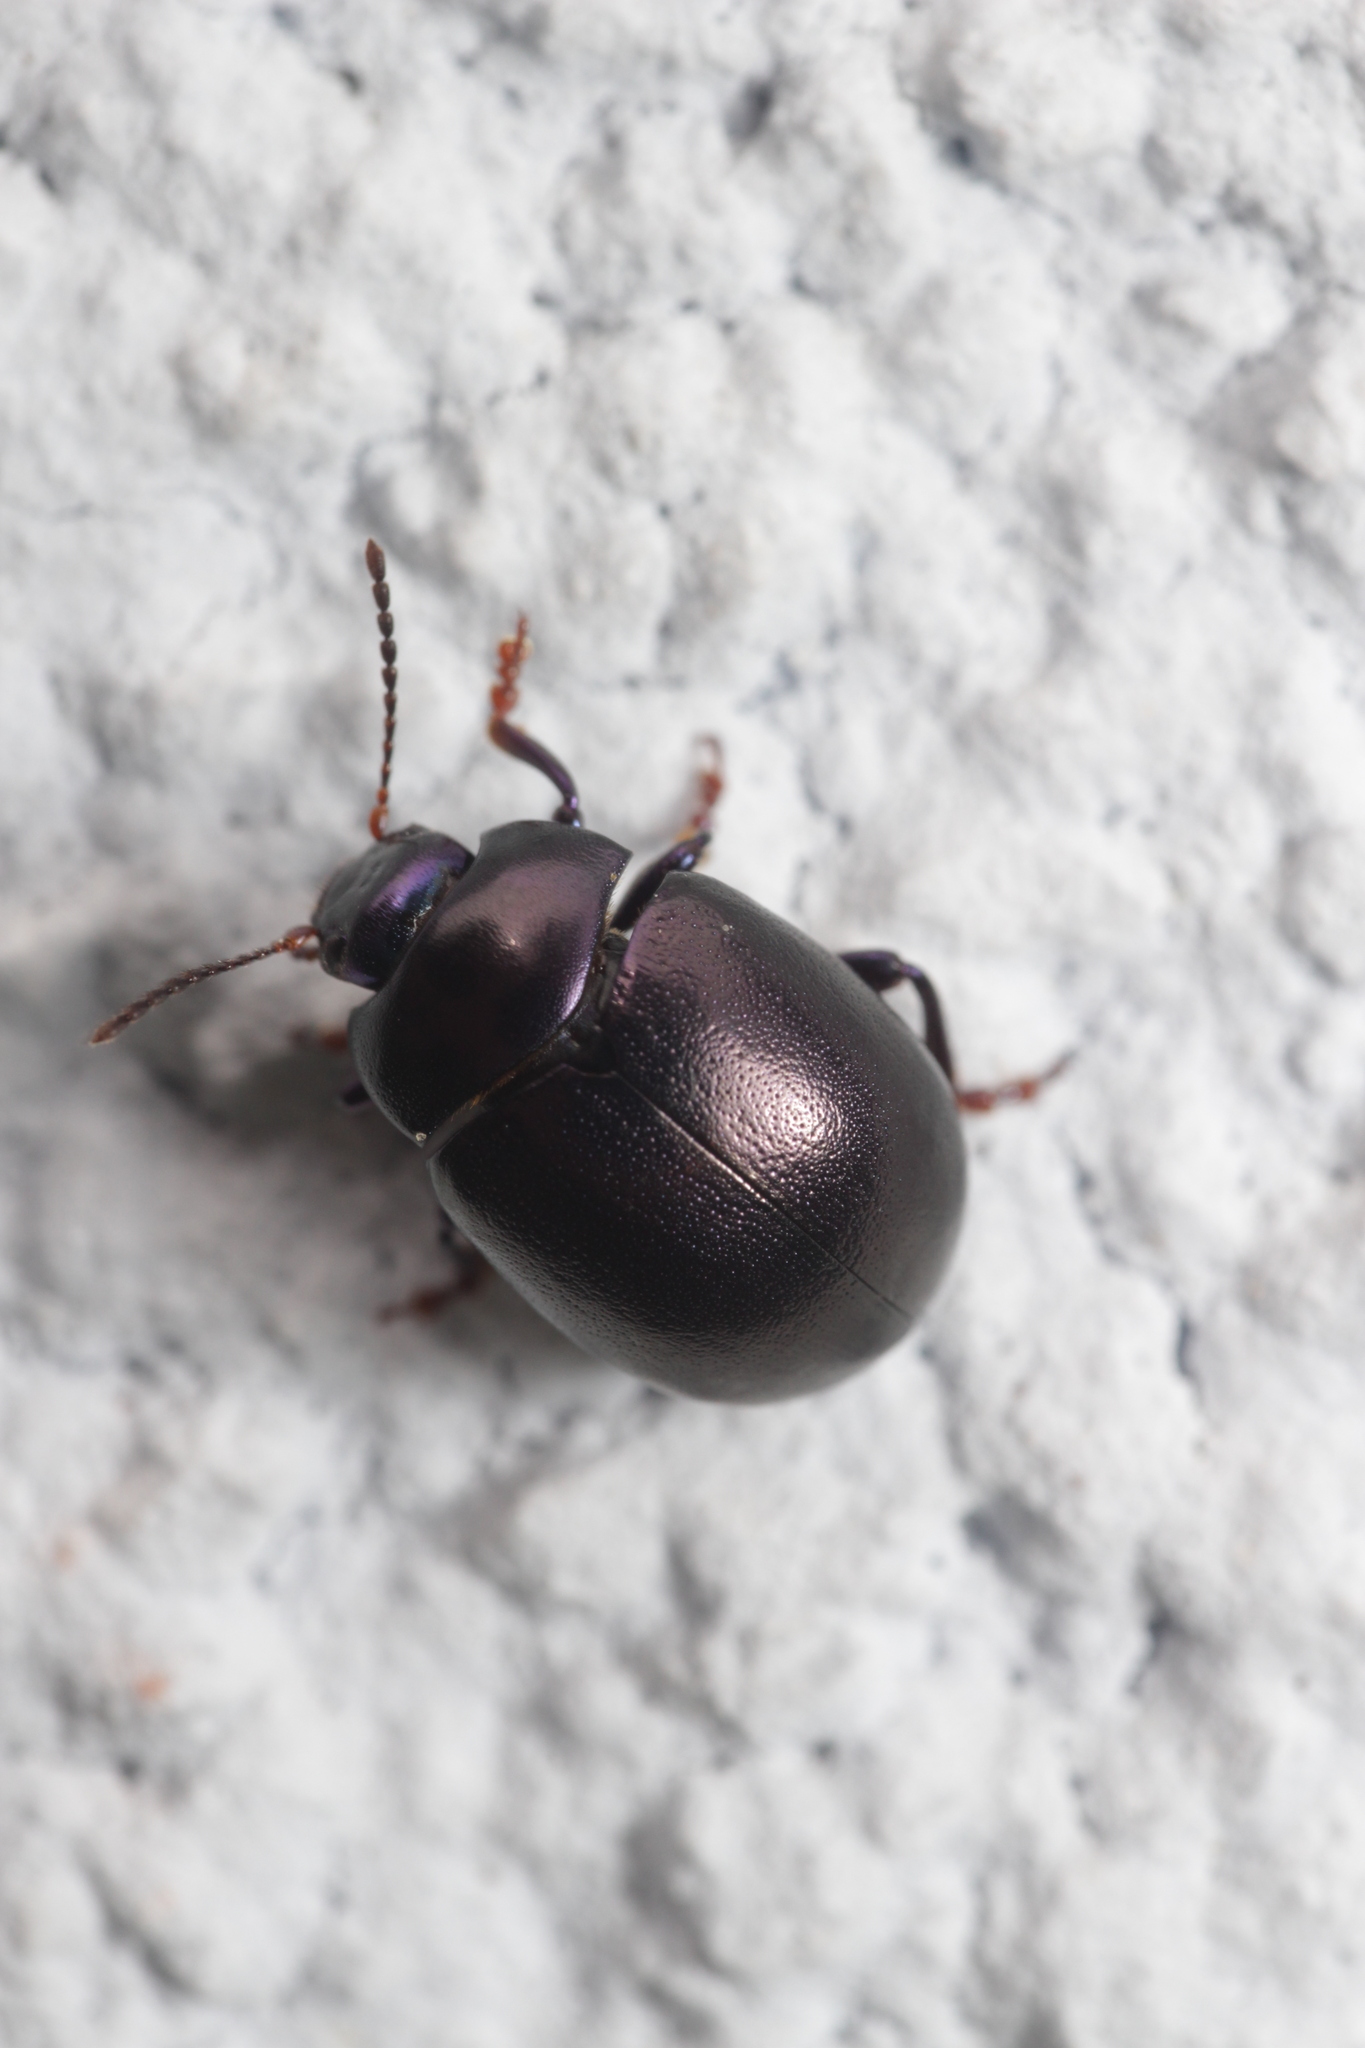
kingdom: Animalia
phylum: Arthropoda
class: Insecta
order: Coleoptera
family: Chrysomelidae
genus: Chrysolina
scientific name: Chrysolina sturmi
